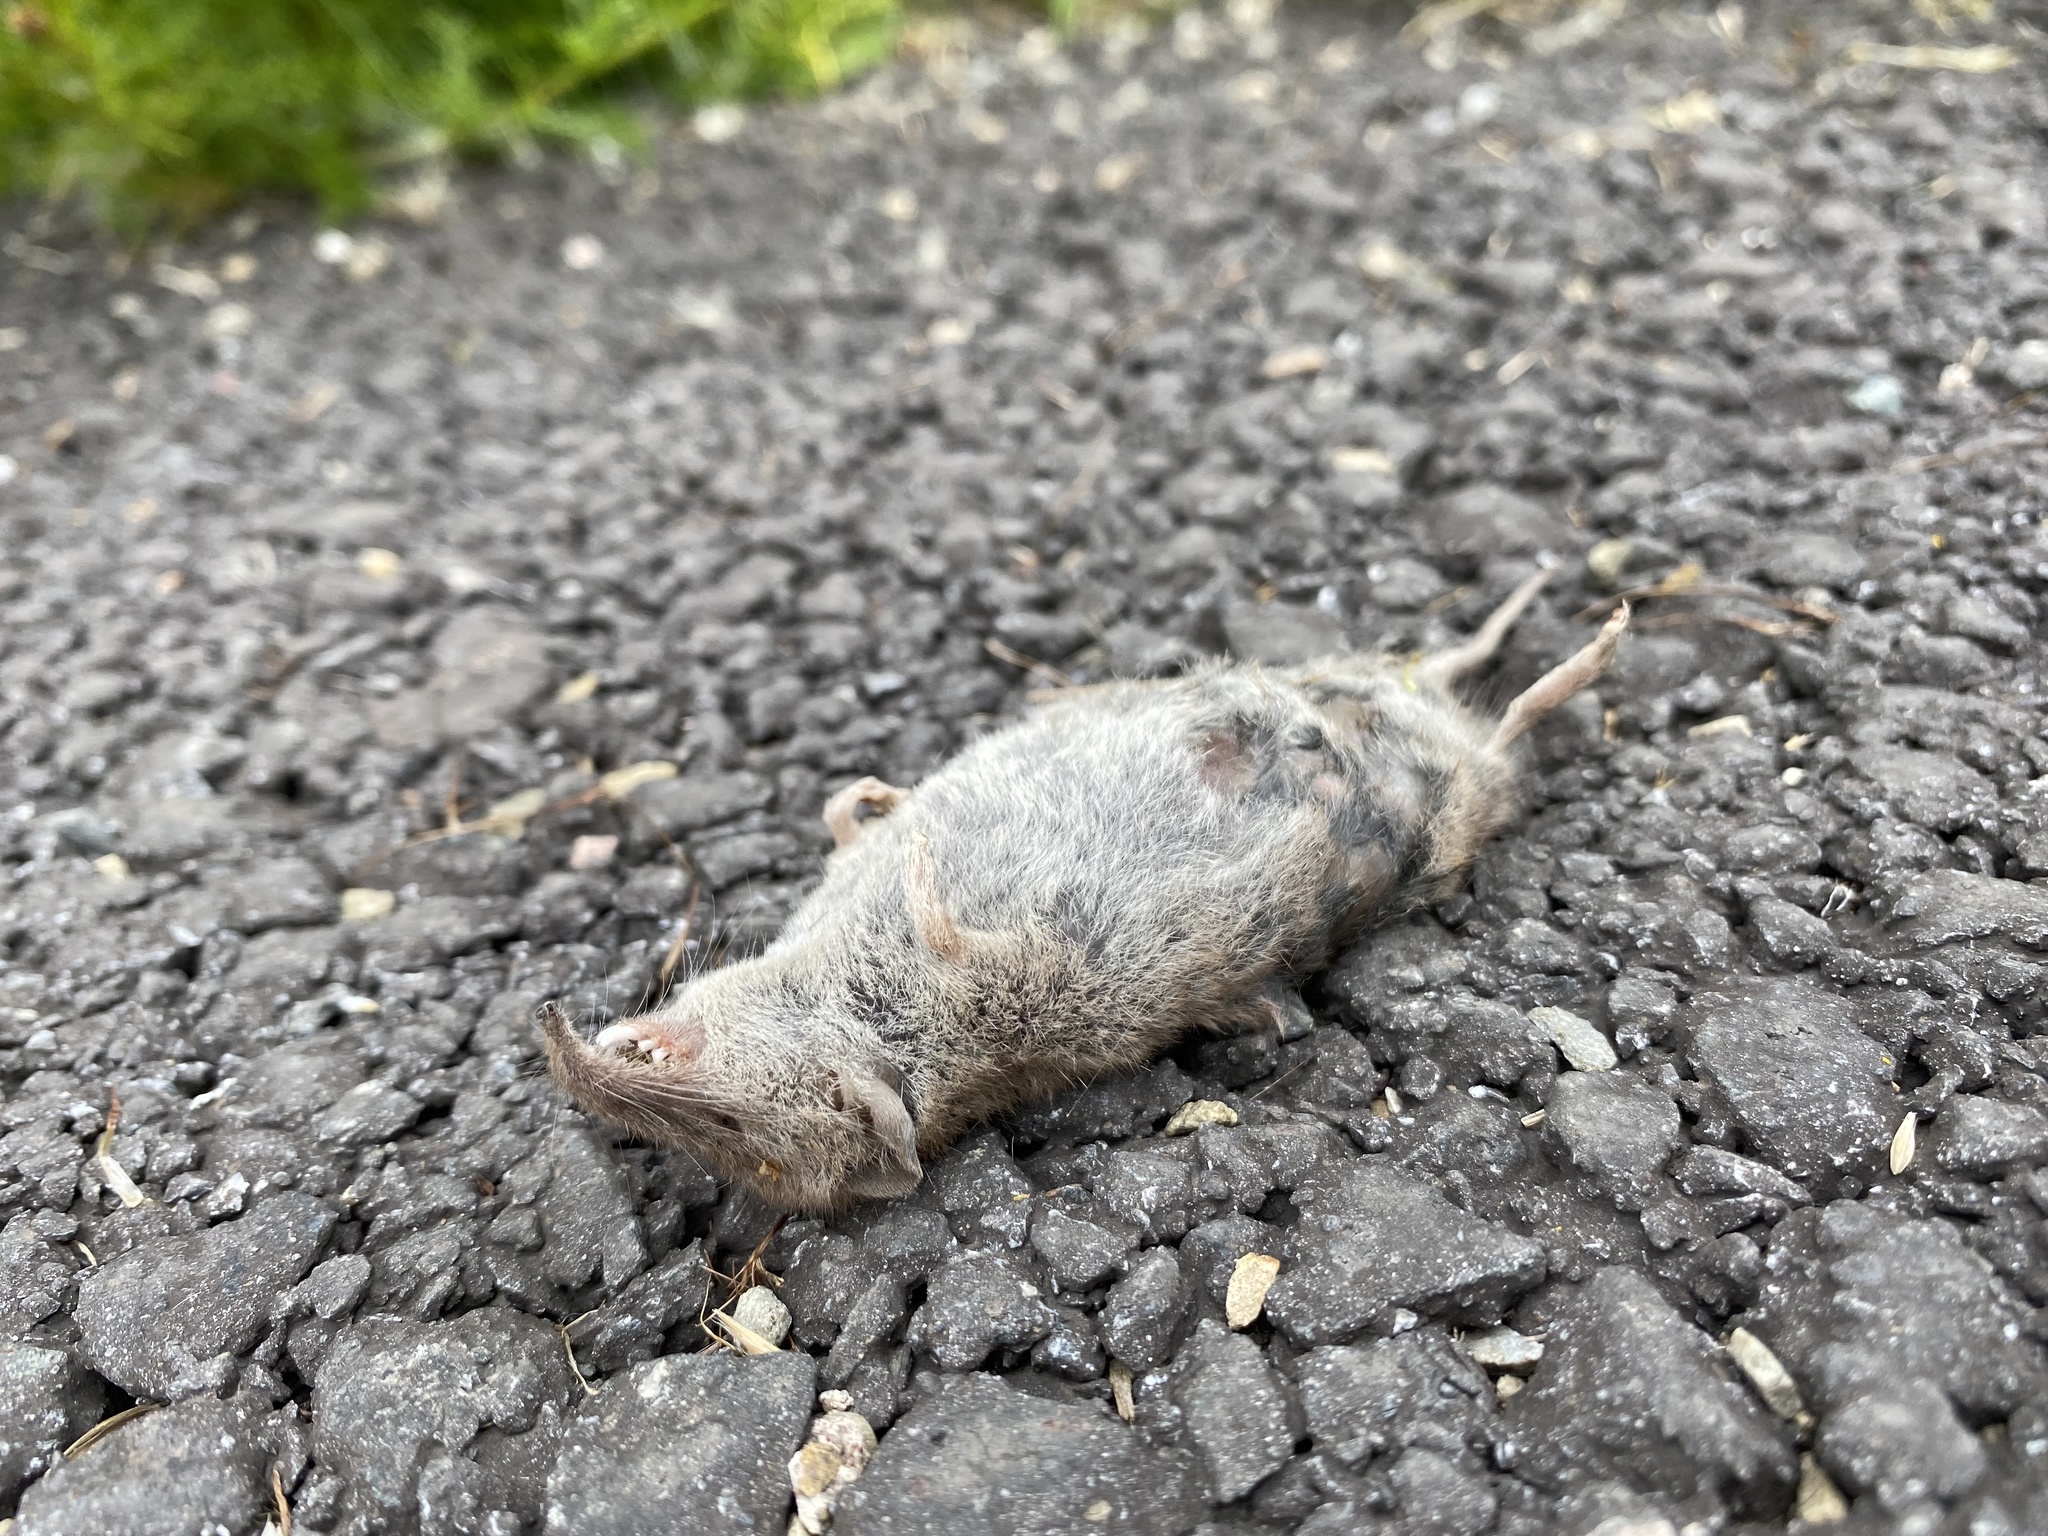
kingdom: Animalia
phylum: Chordata
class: Mammalia
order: Soricomorpha
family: Soricidae
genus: Crocidura
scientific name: Crocidura russula
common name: Greater white-toothed shrew
